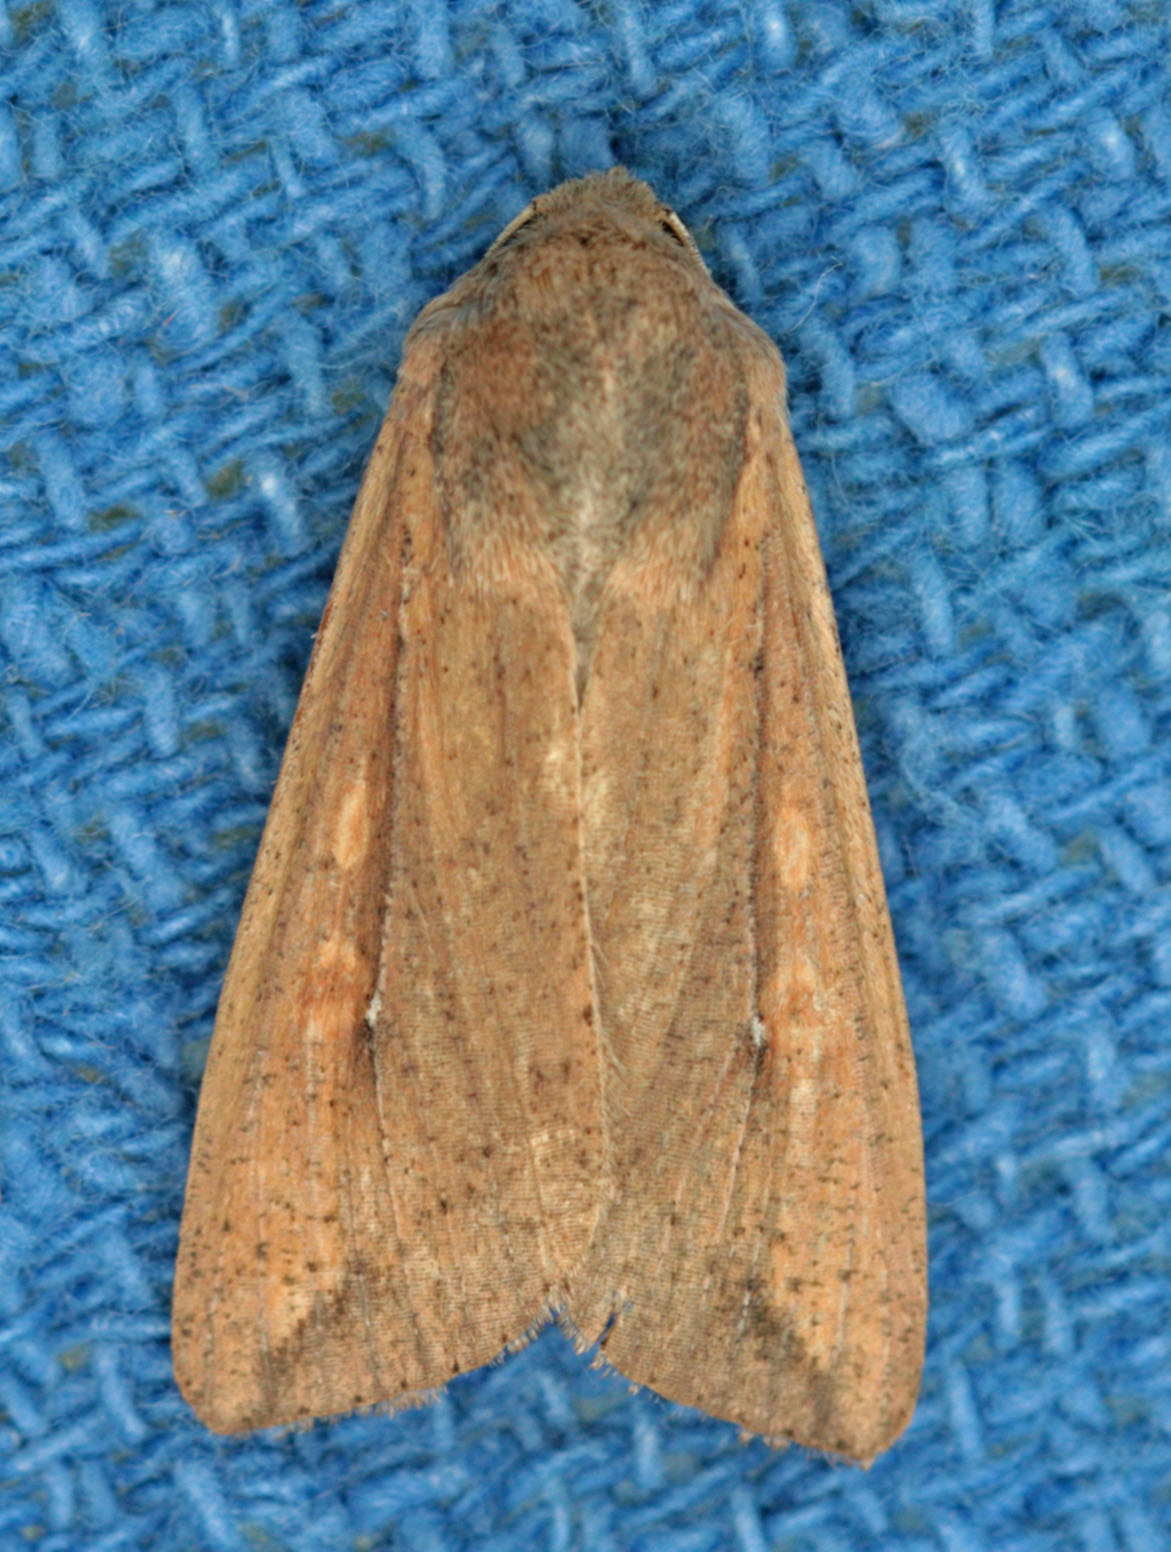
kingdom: Animalia
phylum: Arthropoda
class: Insecta
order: Lepidoptera
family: Noctuidae
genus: Mythimna
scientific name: Mythimna unipuncta
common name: White-speck
